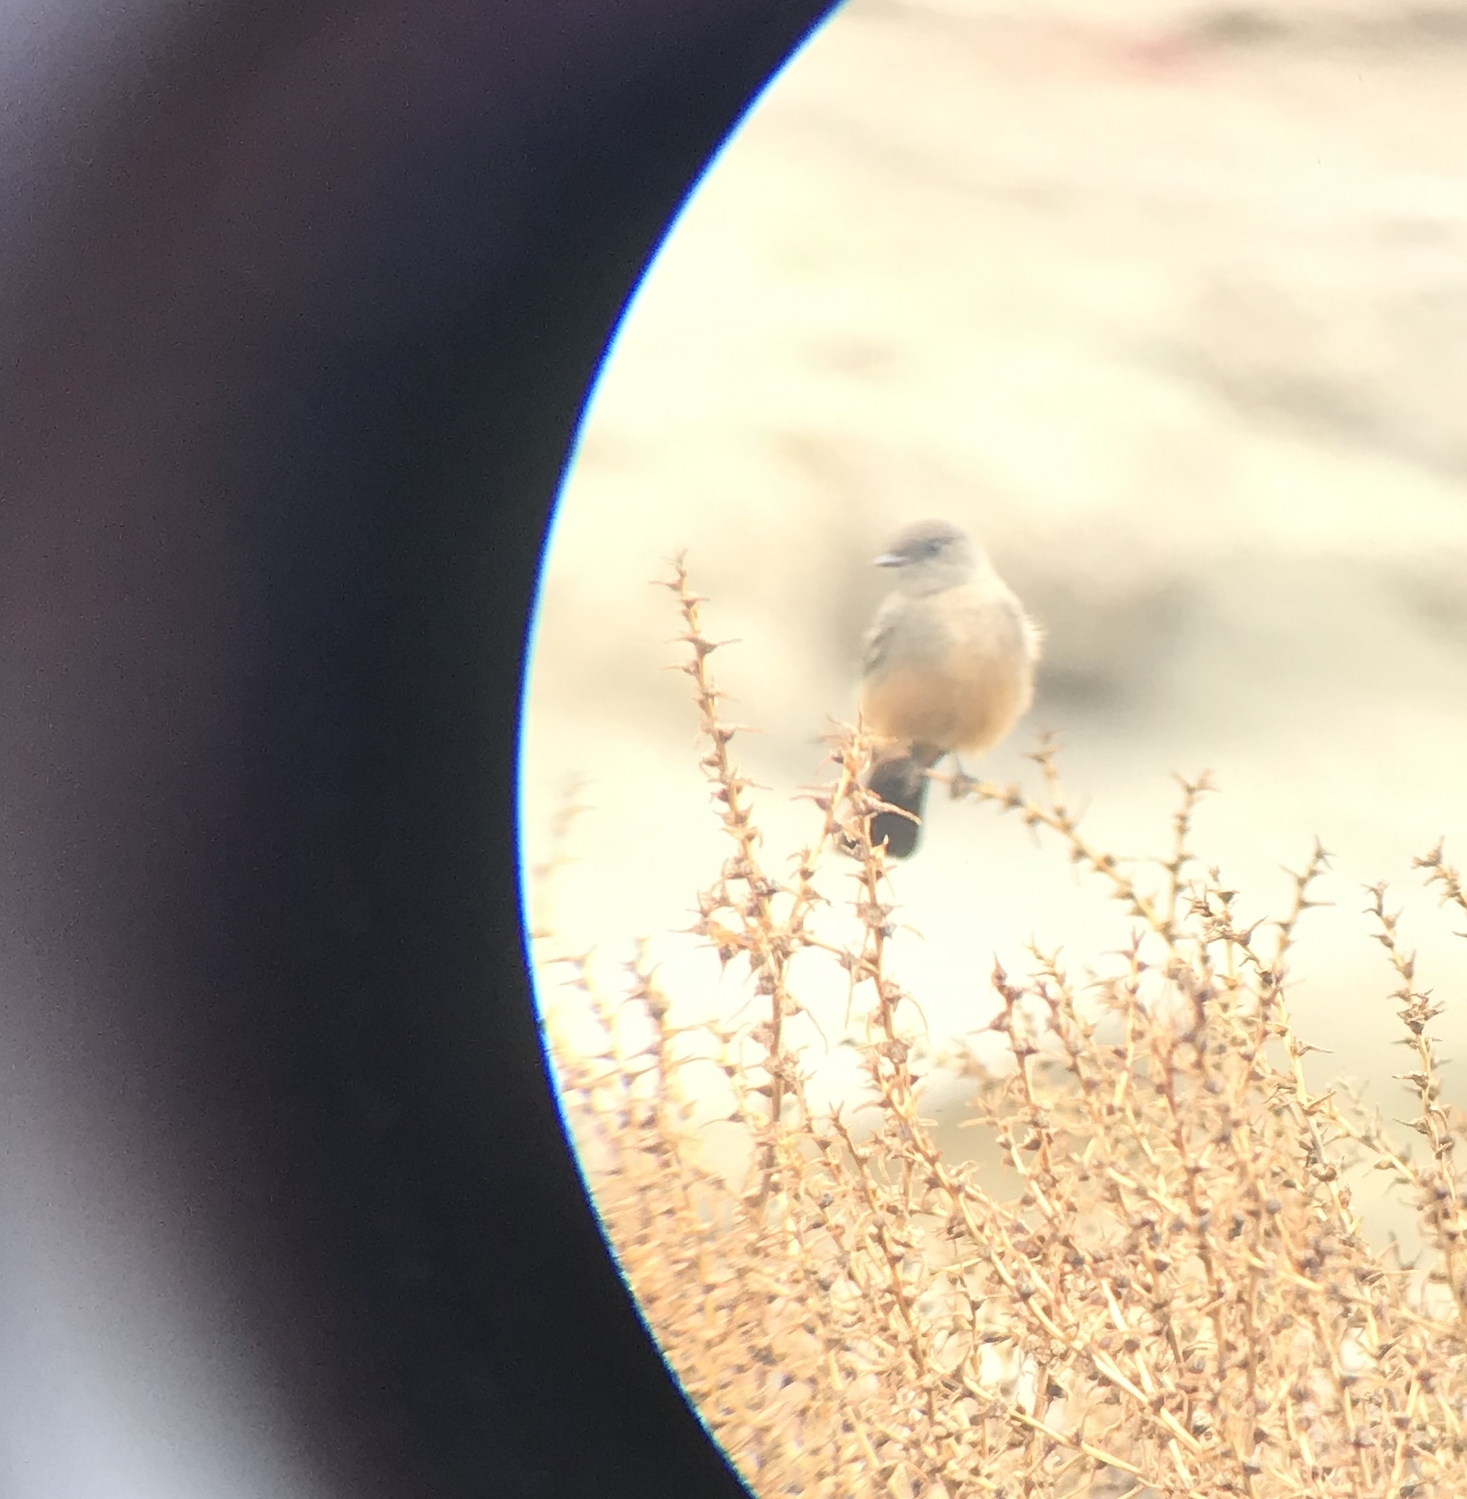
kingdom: Animalia
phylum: Chordata
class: Aves
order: Passeriformes
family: Tyrannidae
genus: Sayornis
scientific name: Sayornis saya
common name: Say's phoebe
